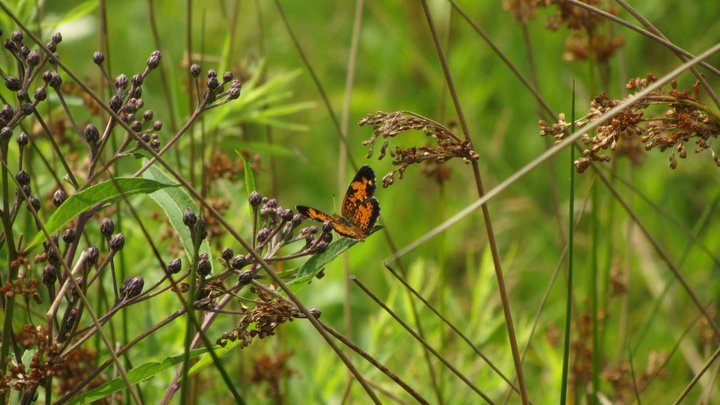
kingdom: Animalia
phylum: Arthropoda
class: Insecta
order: Lepidoptera
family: Nymphalidae
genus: Phyciodes
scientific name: Phyciodes tharos
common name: Pearl crescent
